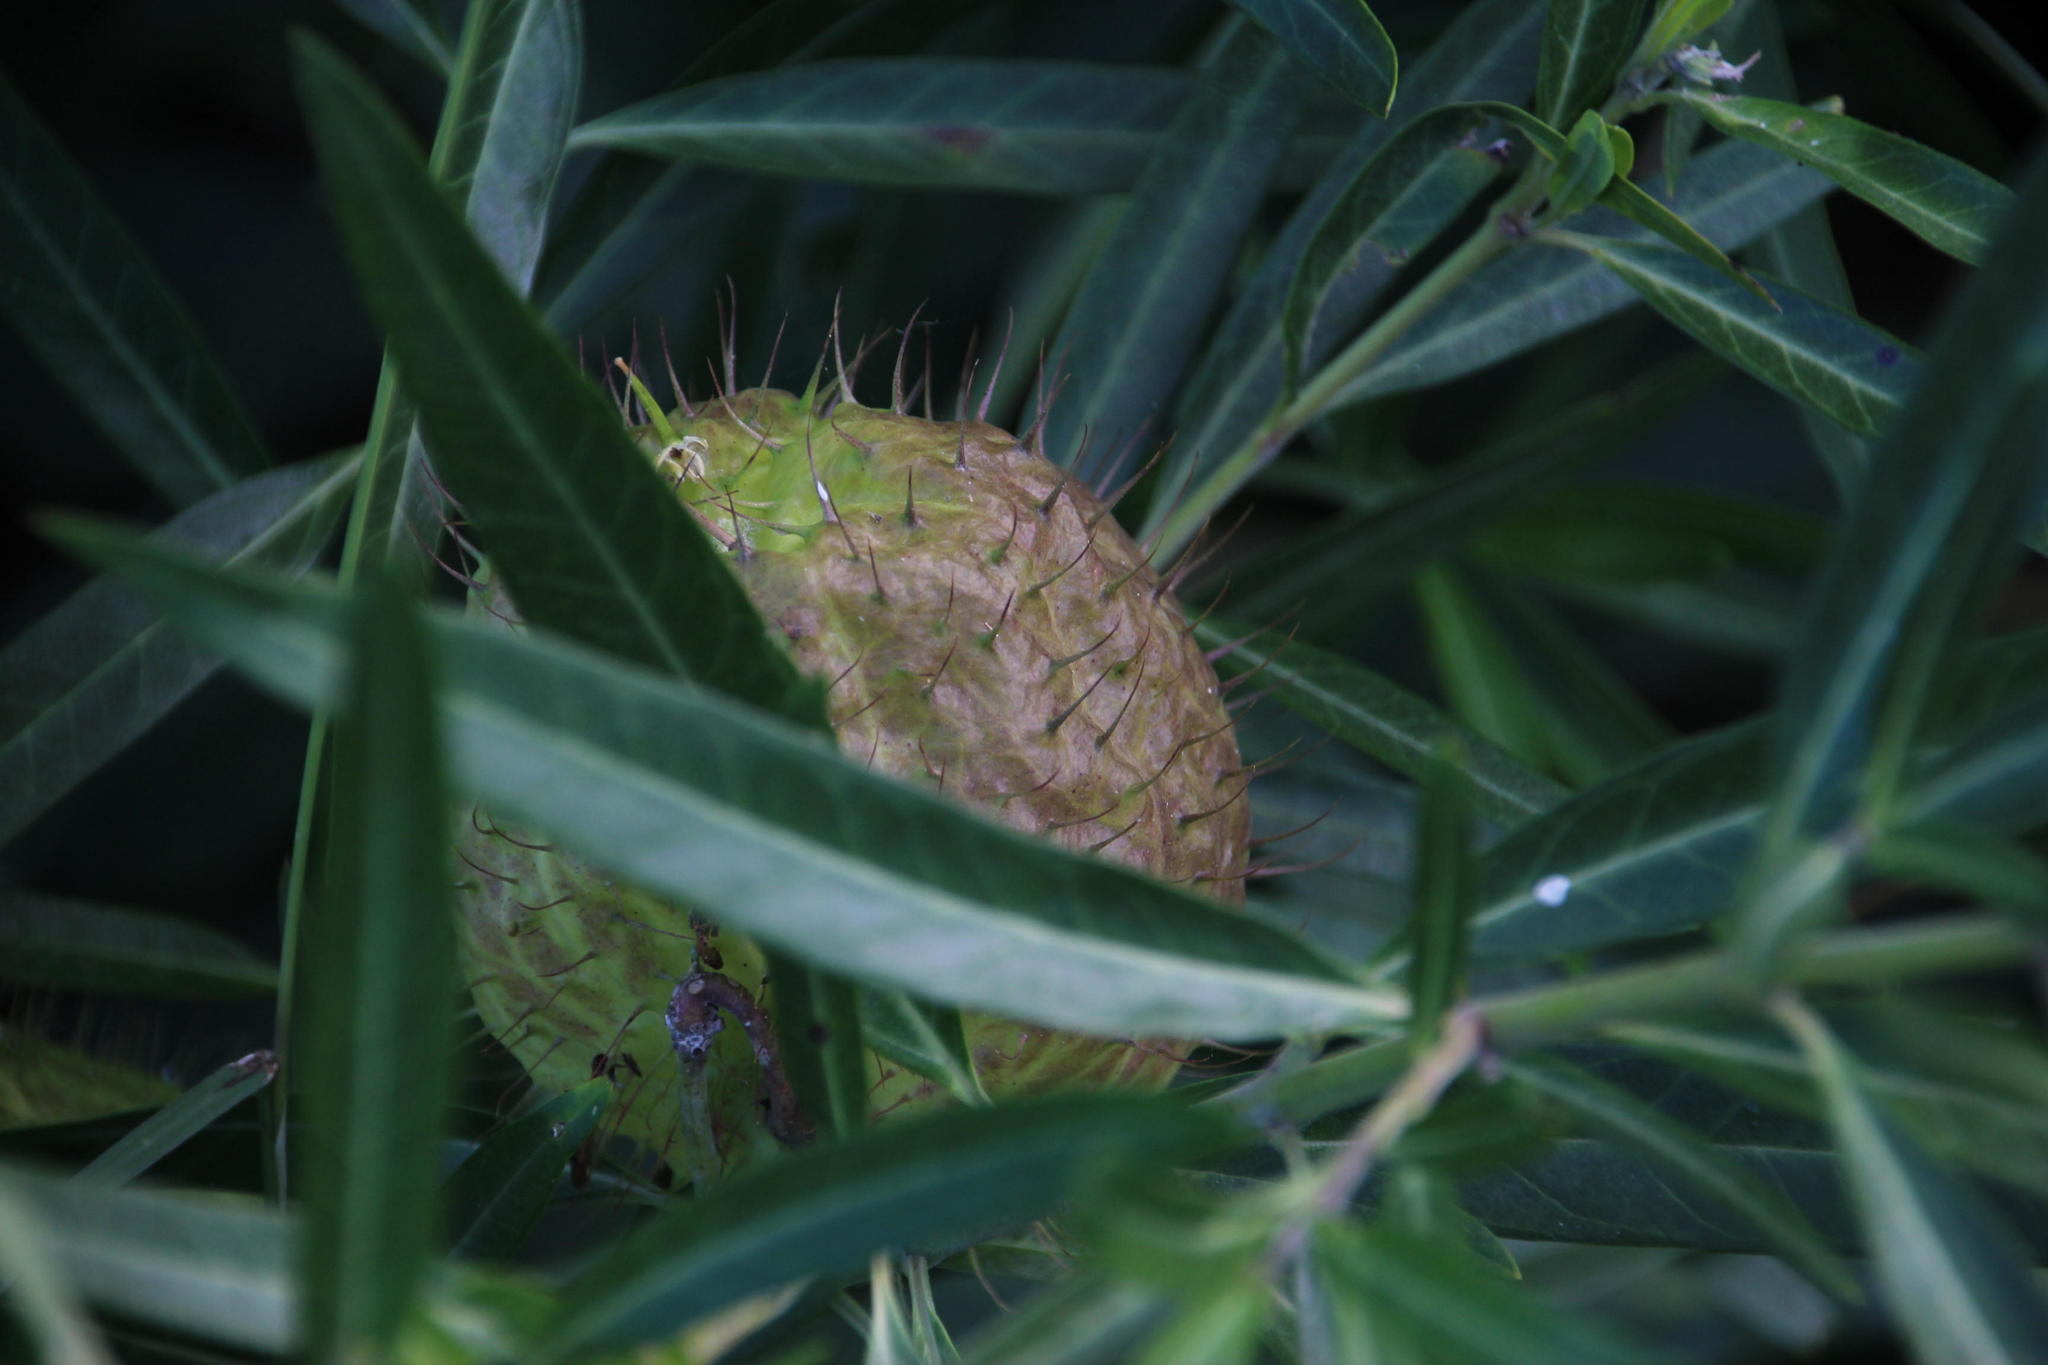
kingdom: Plantae
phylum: Tracheophyta
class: Magnoliopsida
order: Gentianales
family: Apocynaceae
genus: Gomphocarpus
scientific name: Gomphocarpus physocarpus
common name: Balloon cotton bush
